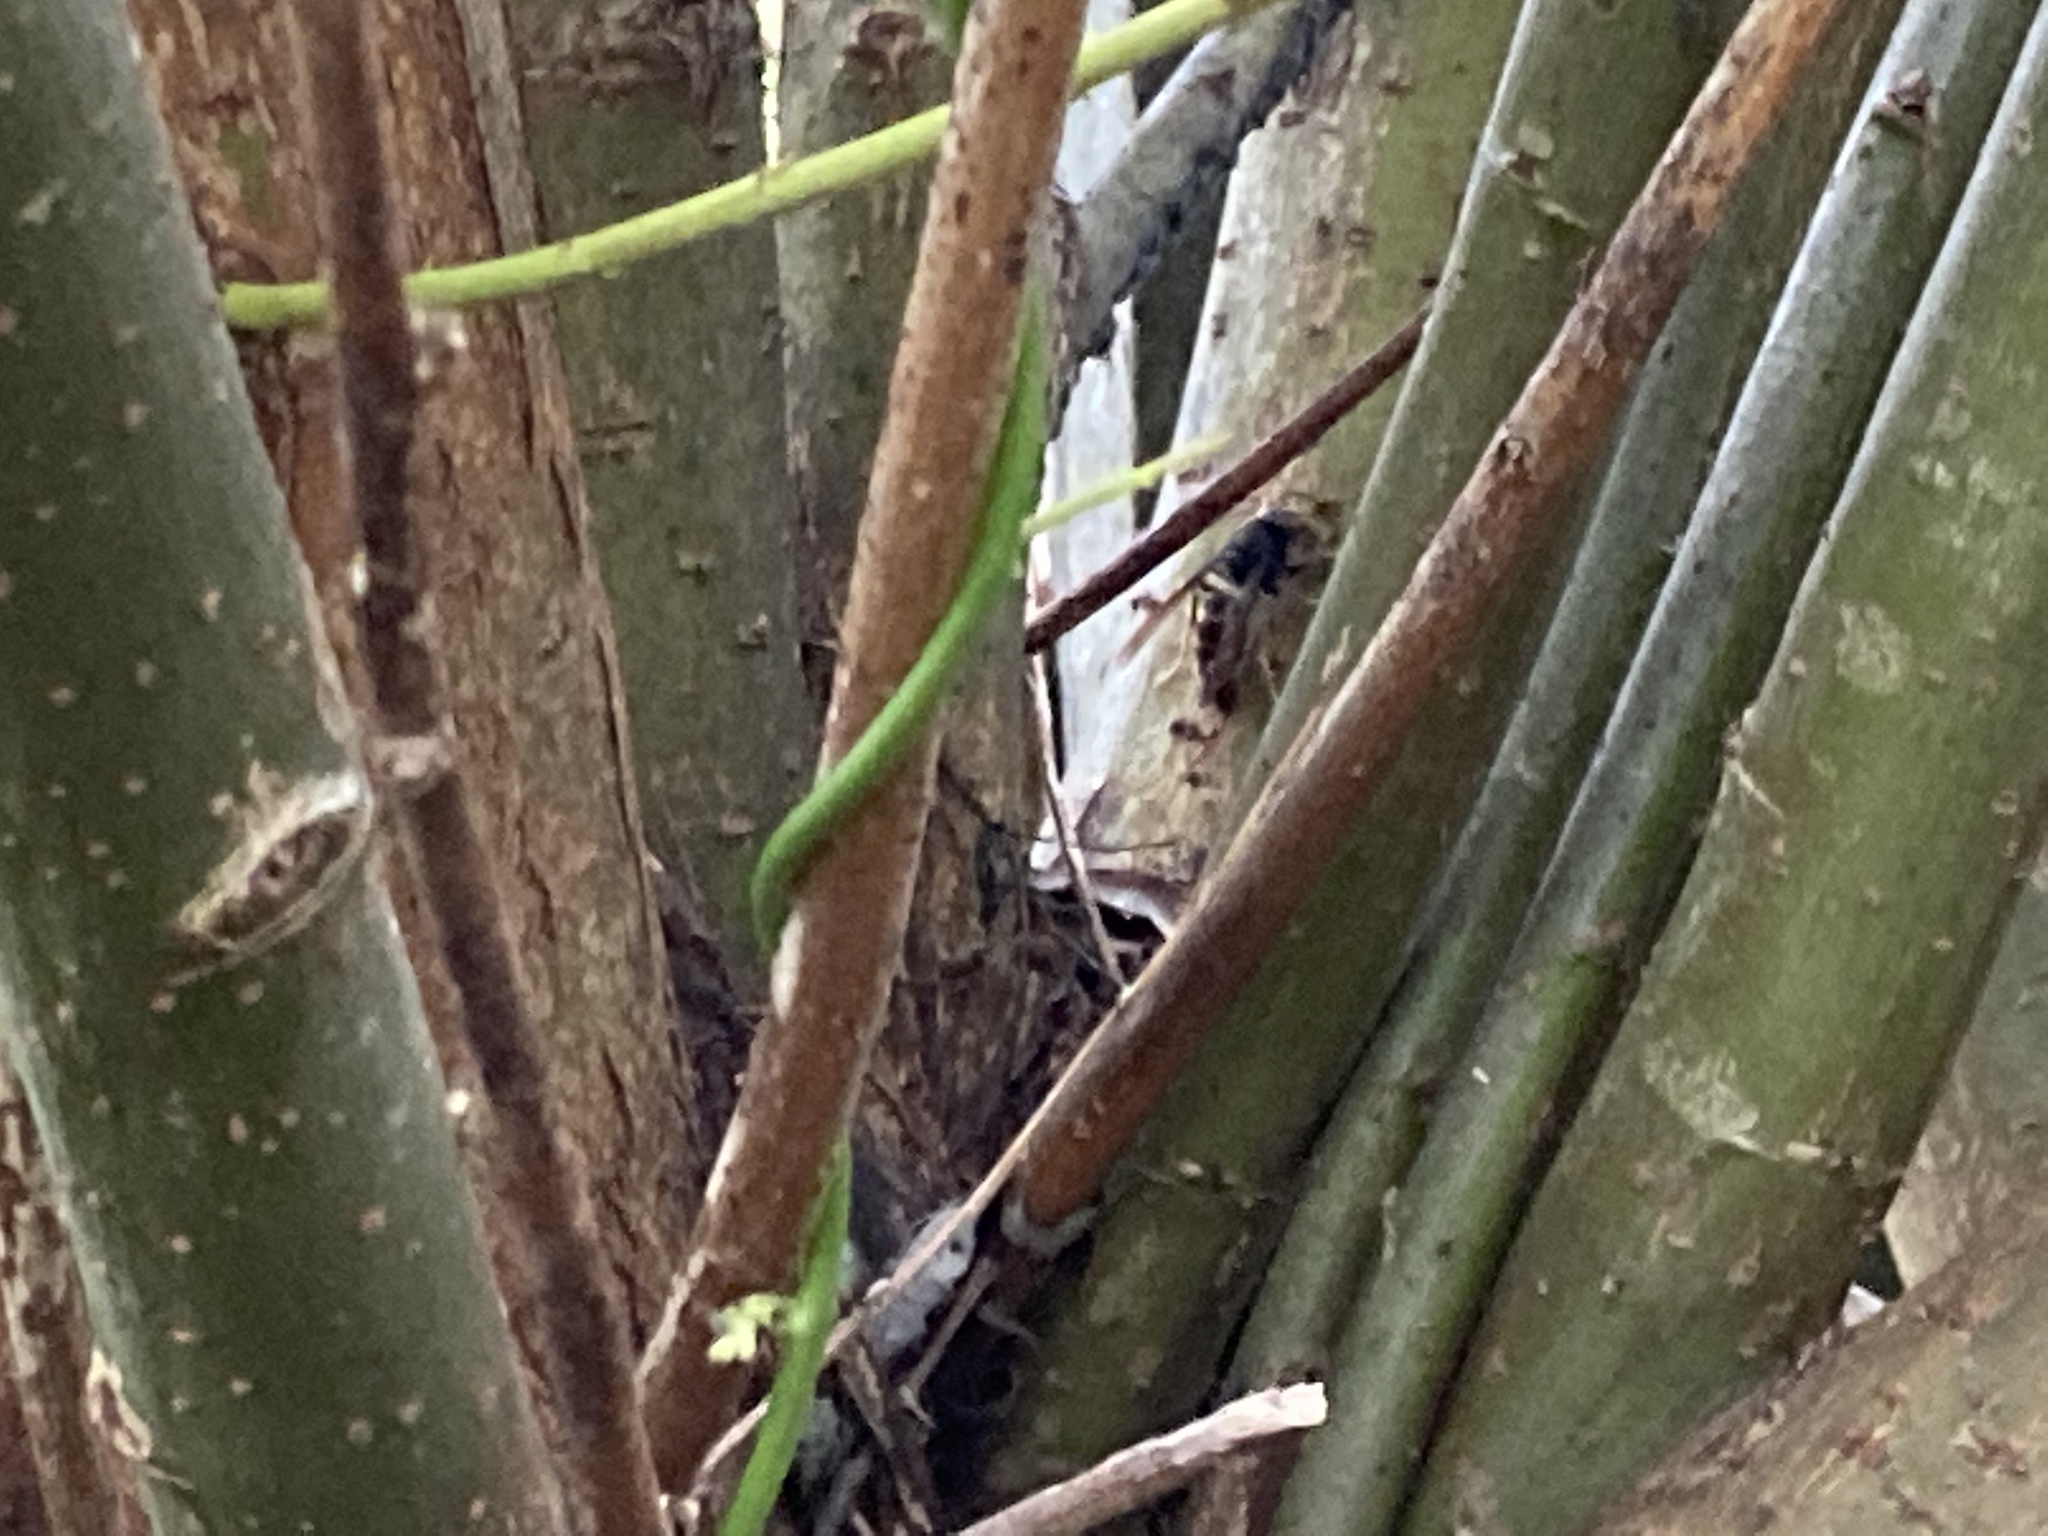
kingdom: Animalia
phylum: Arthropoda
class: Insecta
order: Hymenoptera
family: Vespidae
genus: Vespa
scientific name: Vespa velutina
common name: Asian hornet
